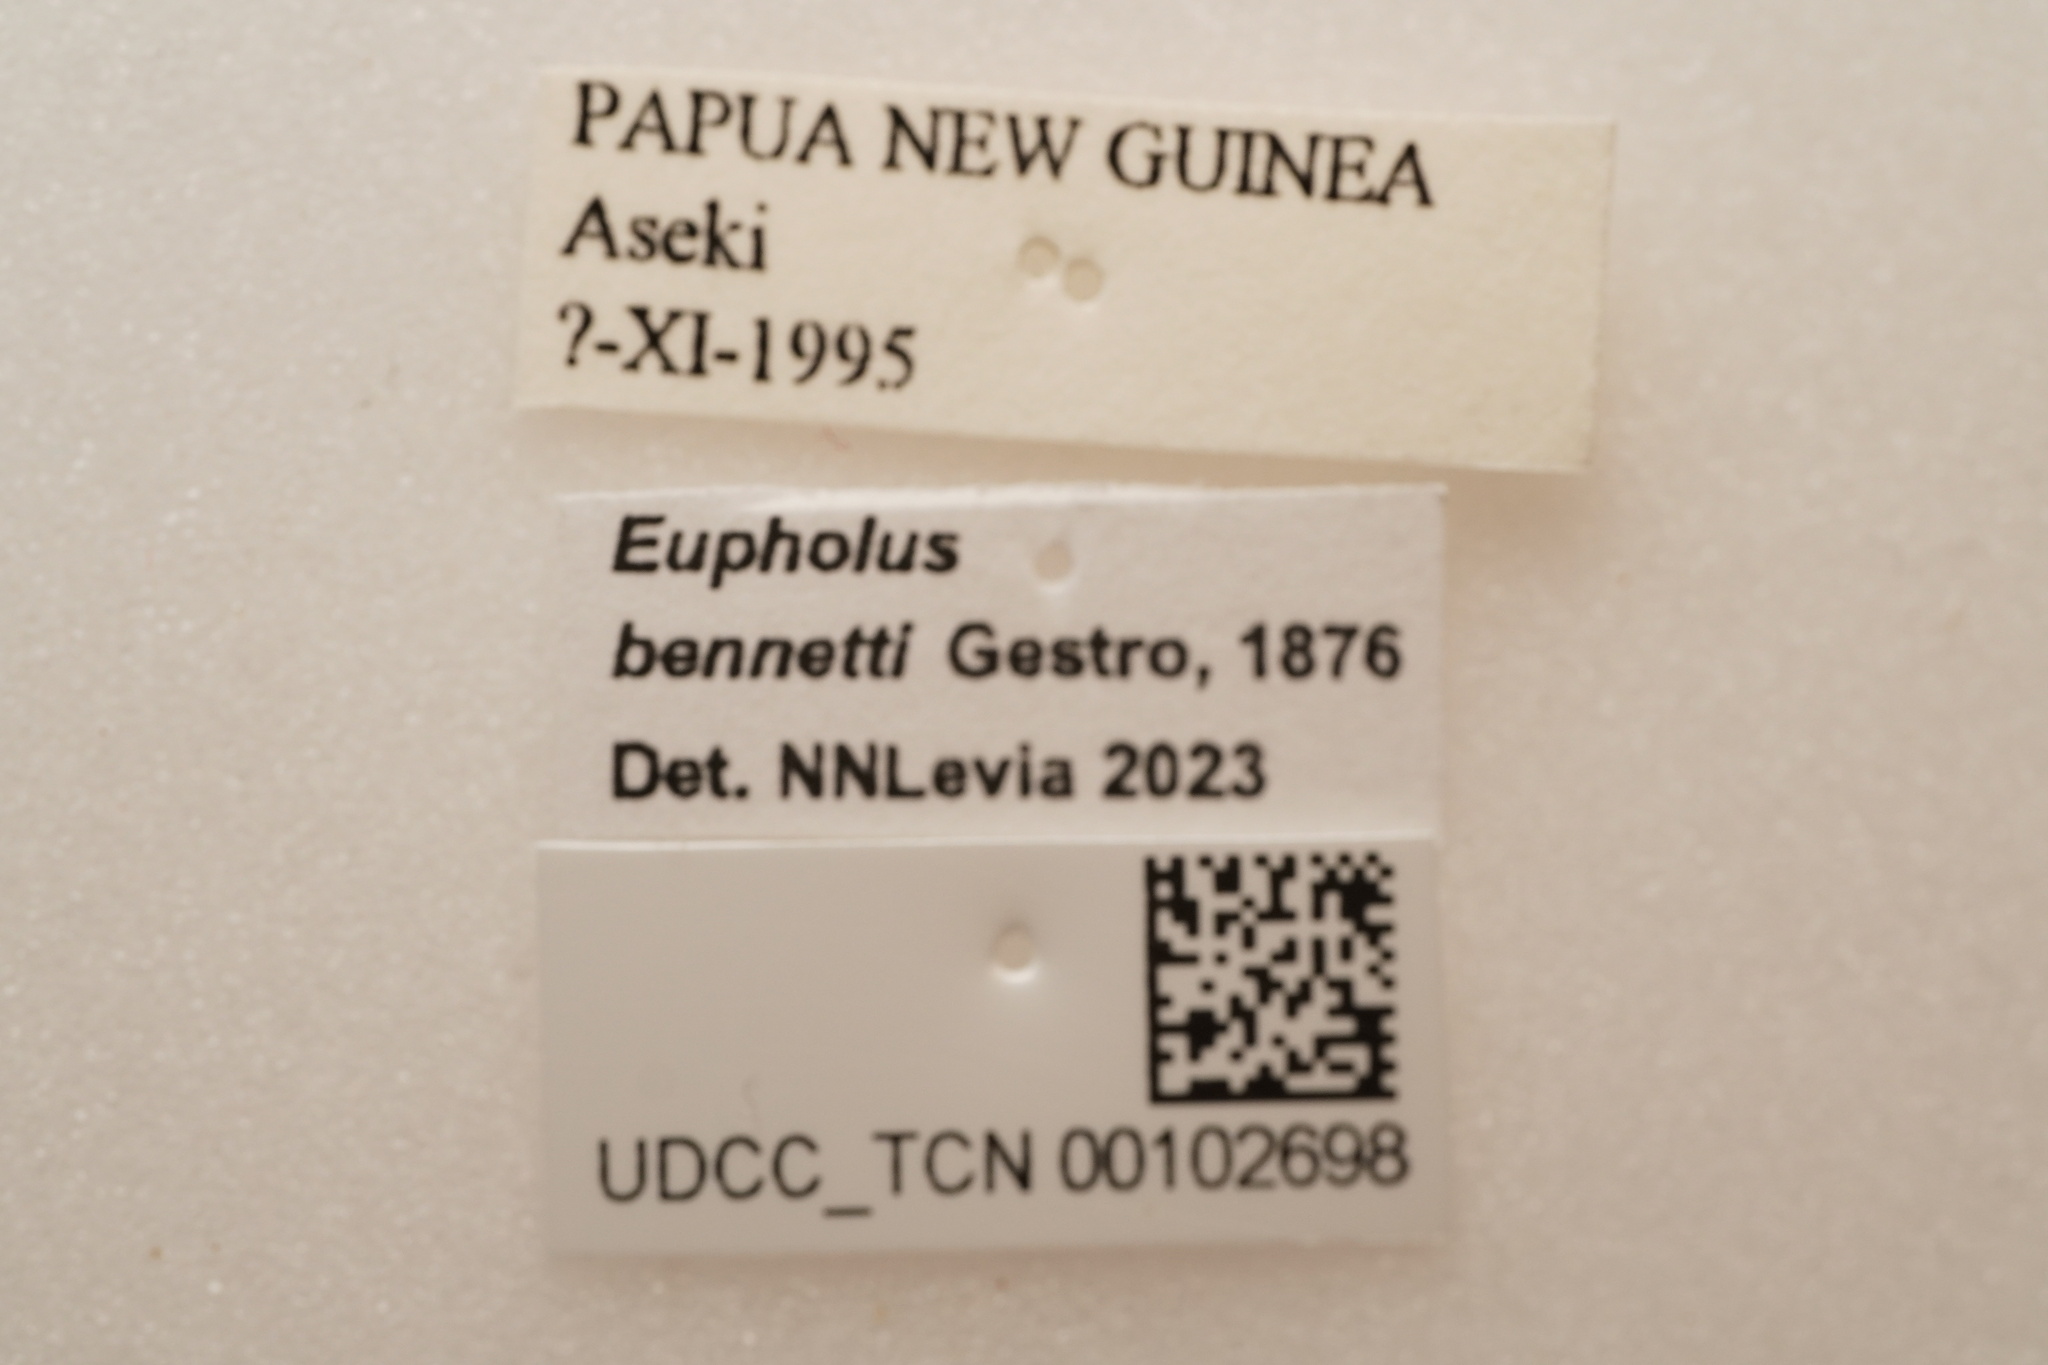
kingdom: Animalia
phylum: Arthropoda
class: Insecta
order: Coleoptera
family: Curculionidae
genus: Eupholus
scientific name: Eupholus bennettii
